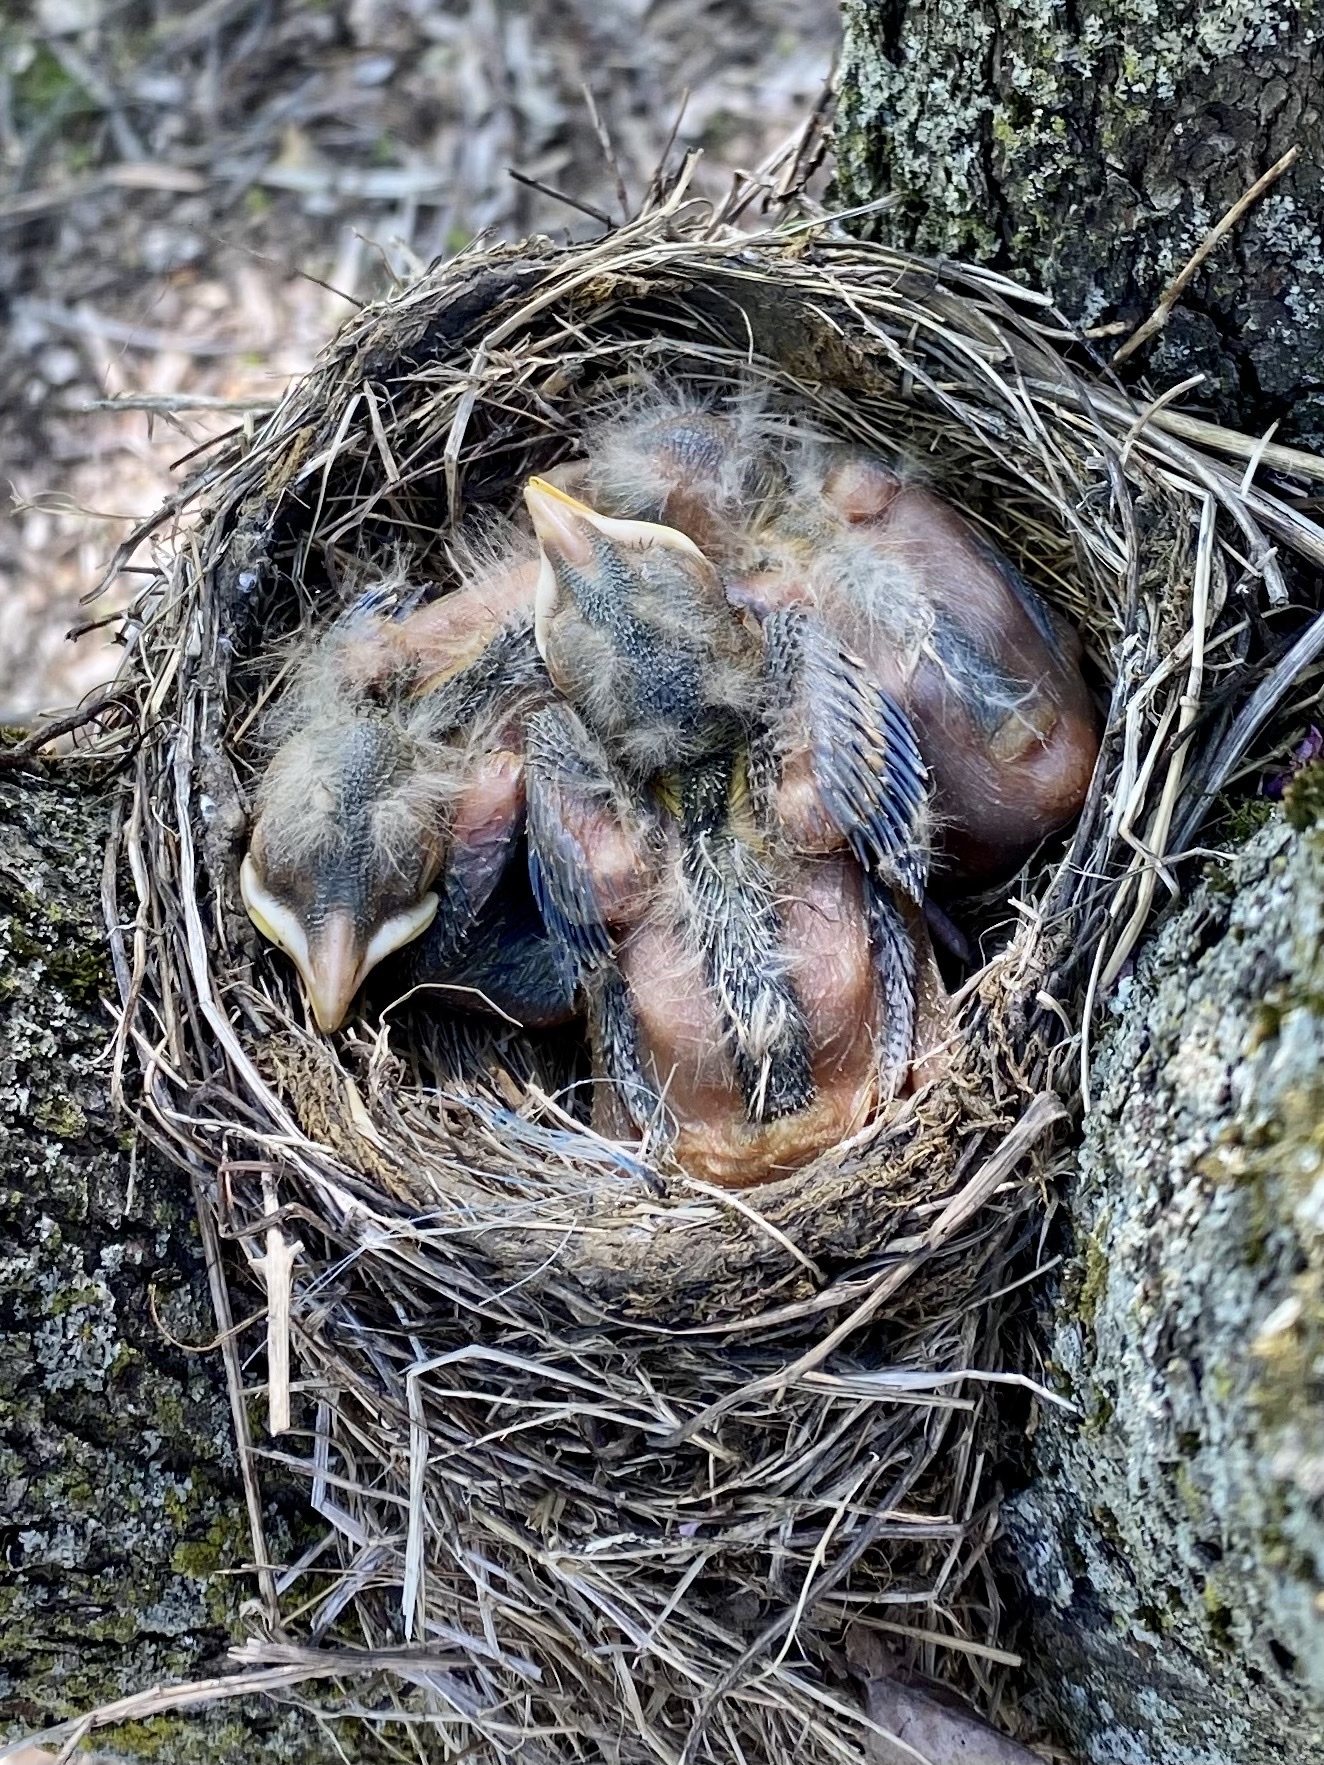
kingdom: Animalia
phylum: Chordata
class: Aves
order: Passeriformes
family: Turdidae
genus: Turdus
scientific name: Turdus migratorius
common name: American robin
